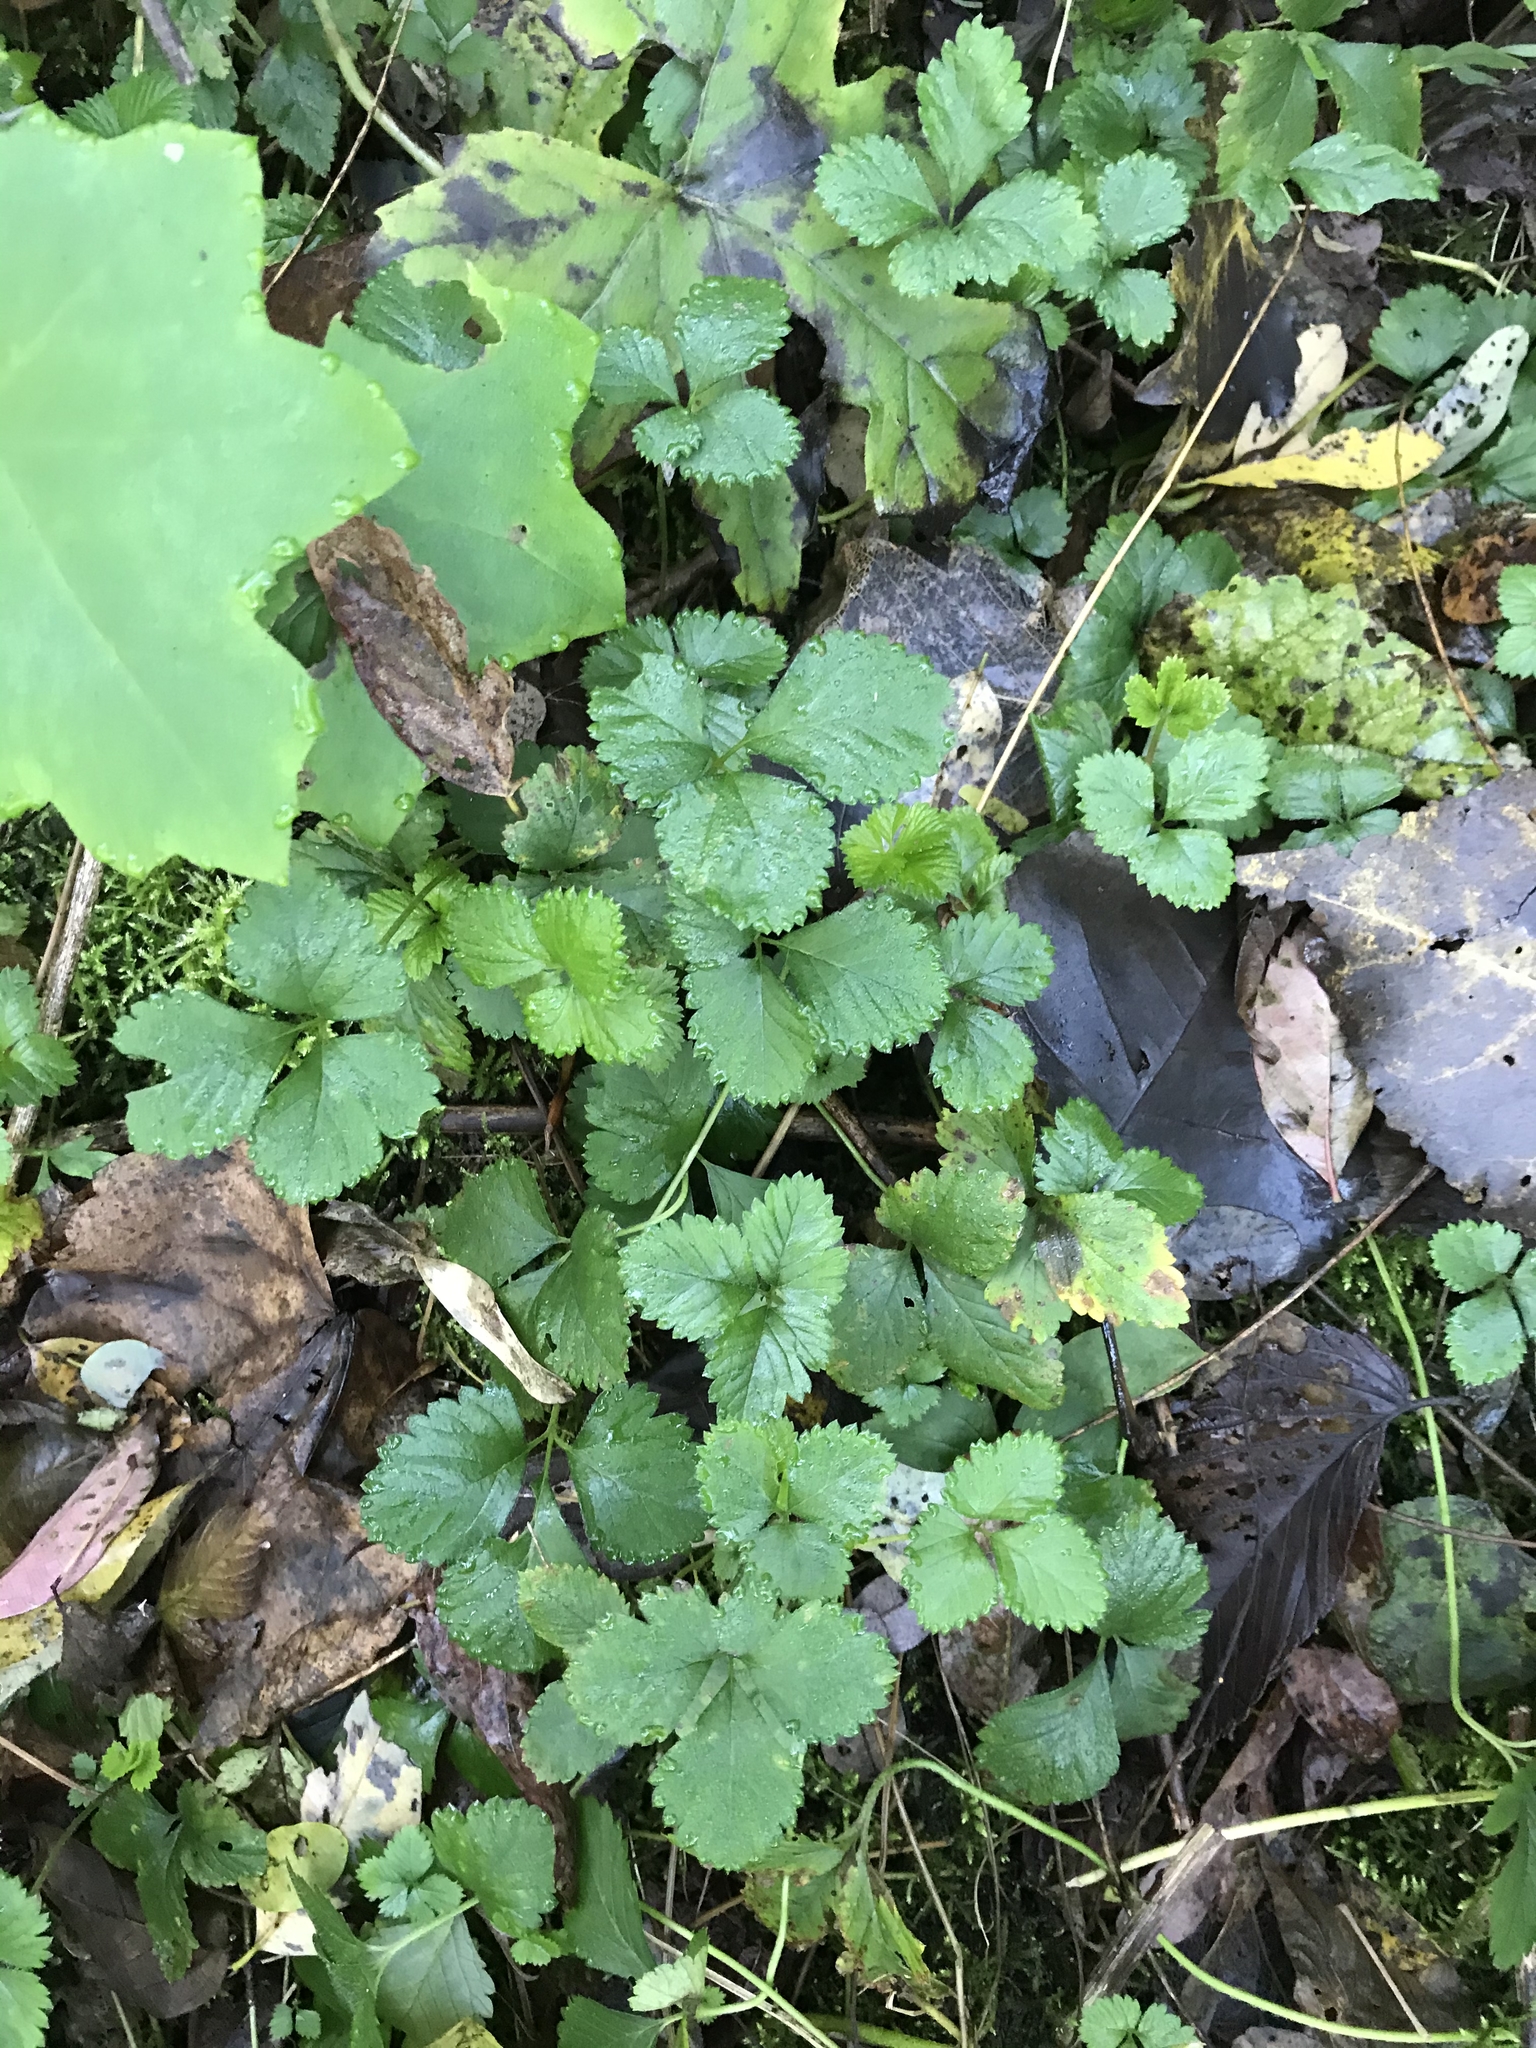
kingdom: Plantae
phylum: Tracheophyta
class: Magnoliopsida
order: Rosales
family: Rosaceae
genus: Potentilla
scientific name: Potentilla indica
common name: Yellow-flowered strawberry
